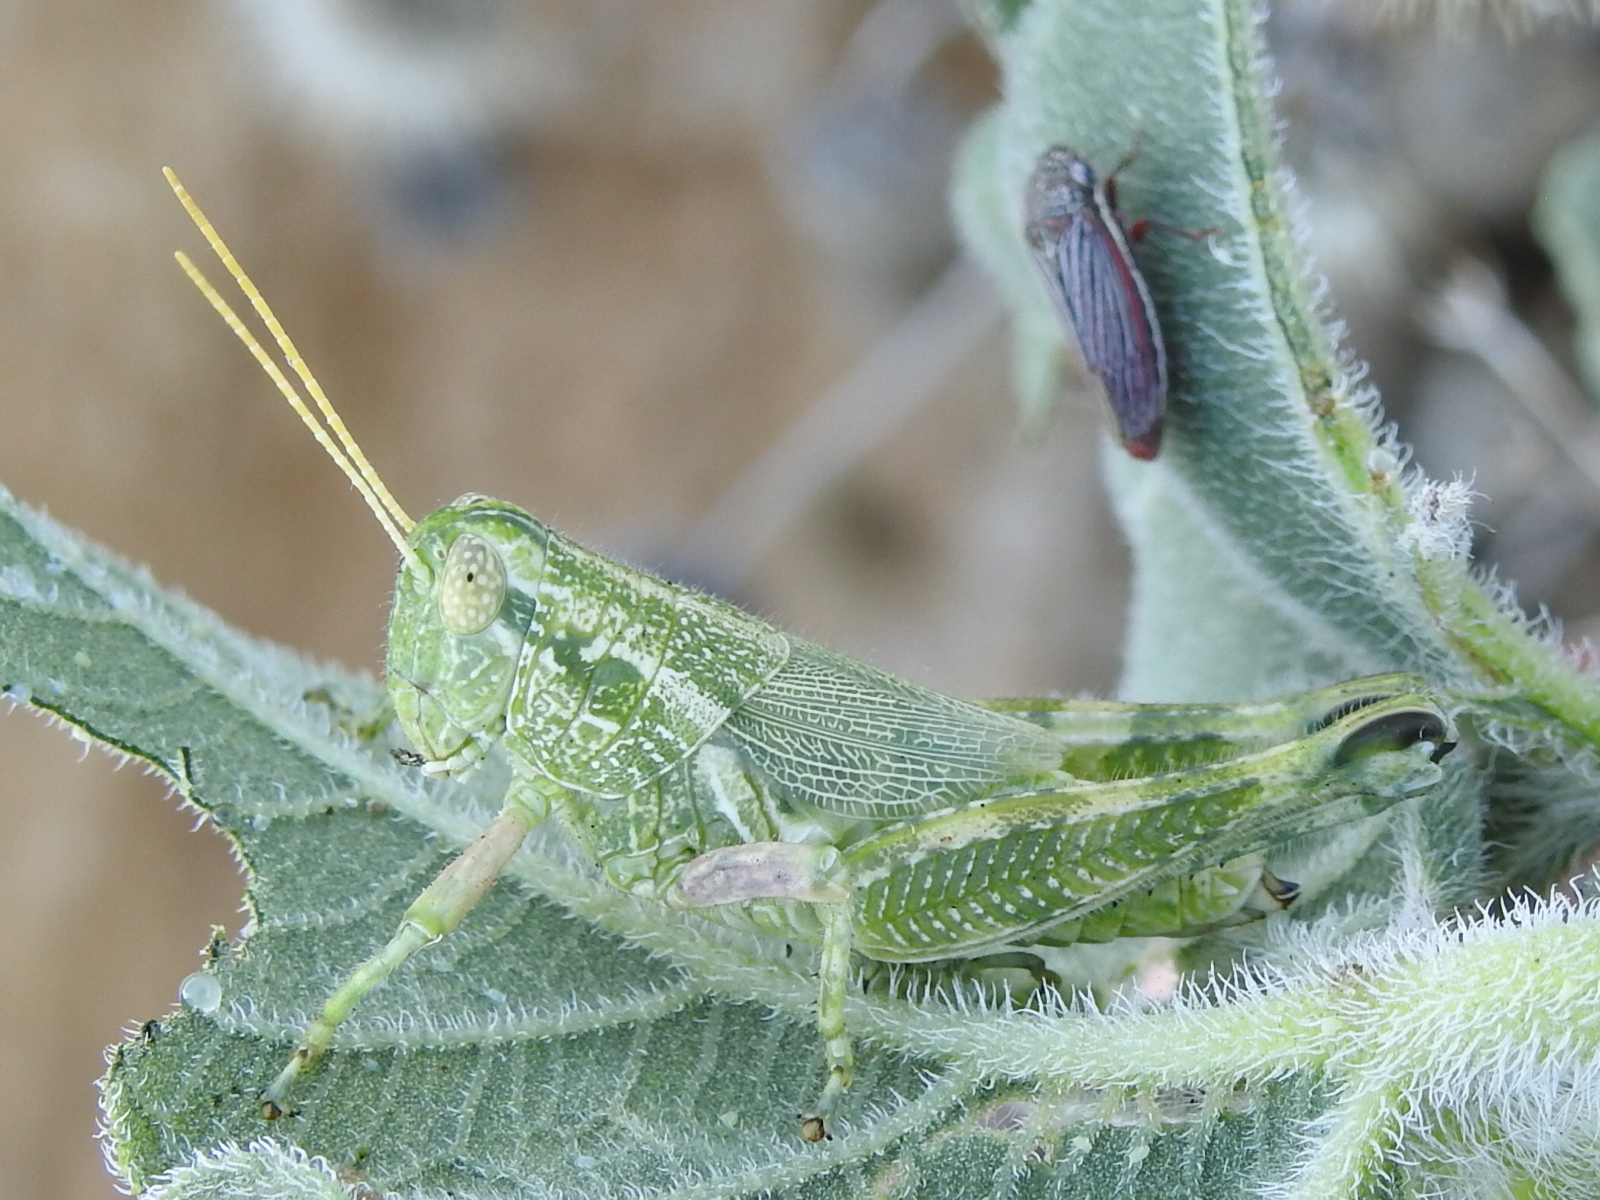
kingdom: Animalia
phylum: Arthropoda
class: Insecta
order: Orthoptera
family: Acrididae
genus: Campylacantha
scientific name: Campylacantha olivacea
